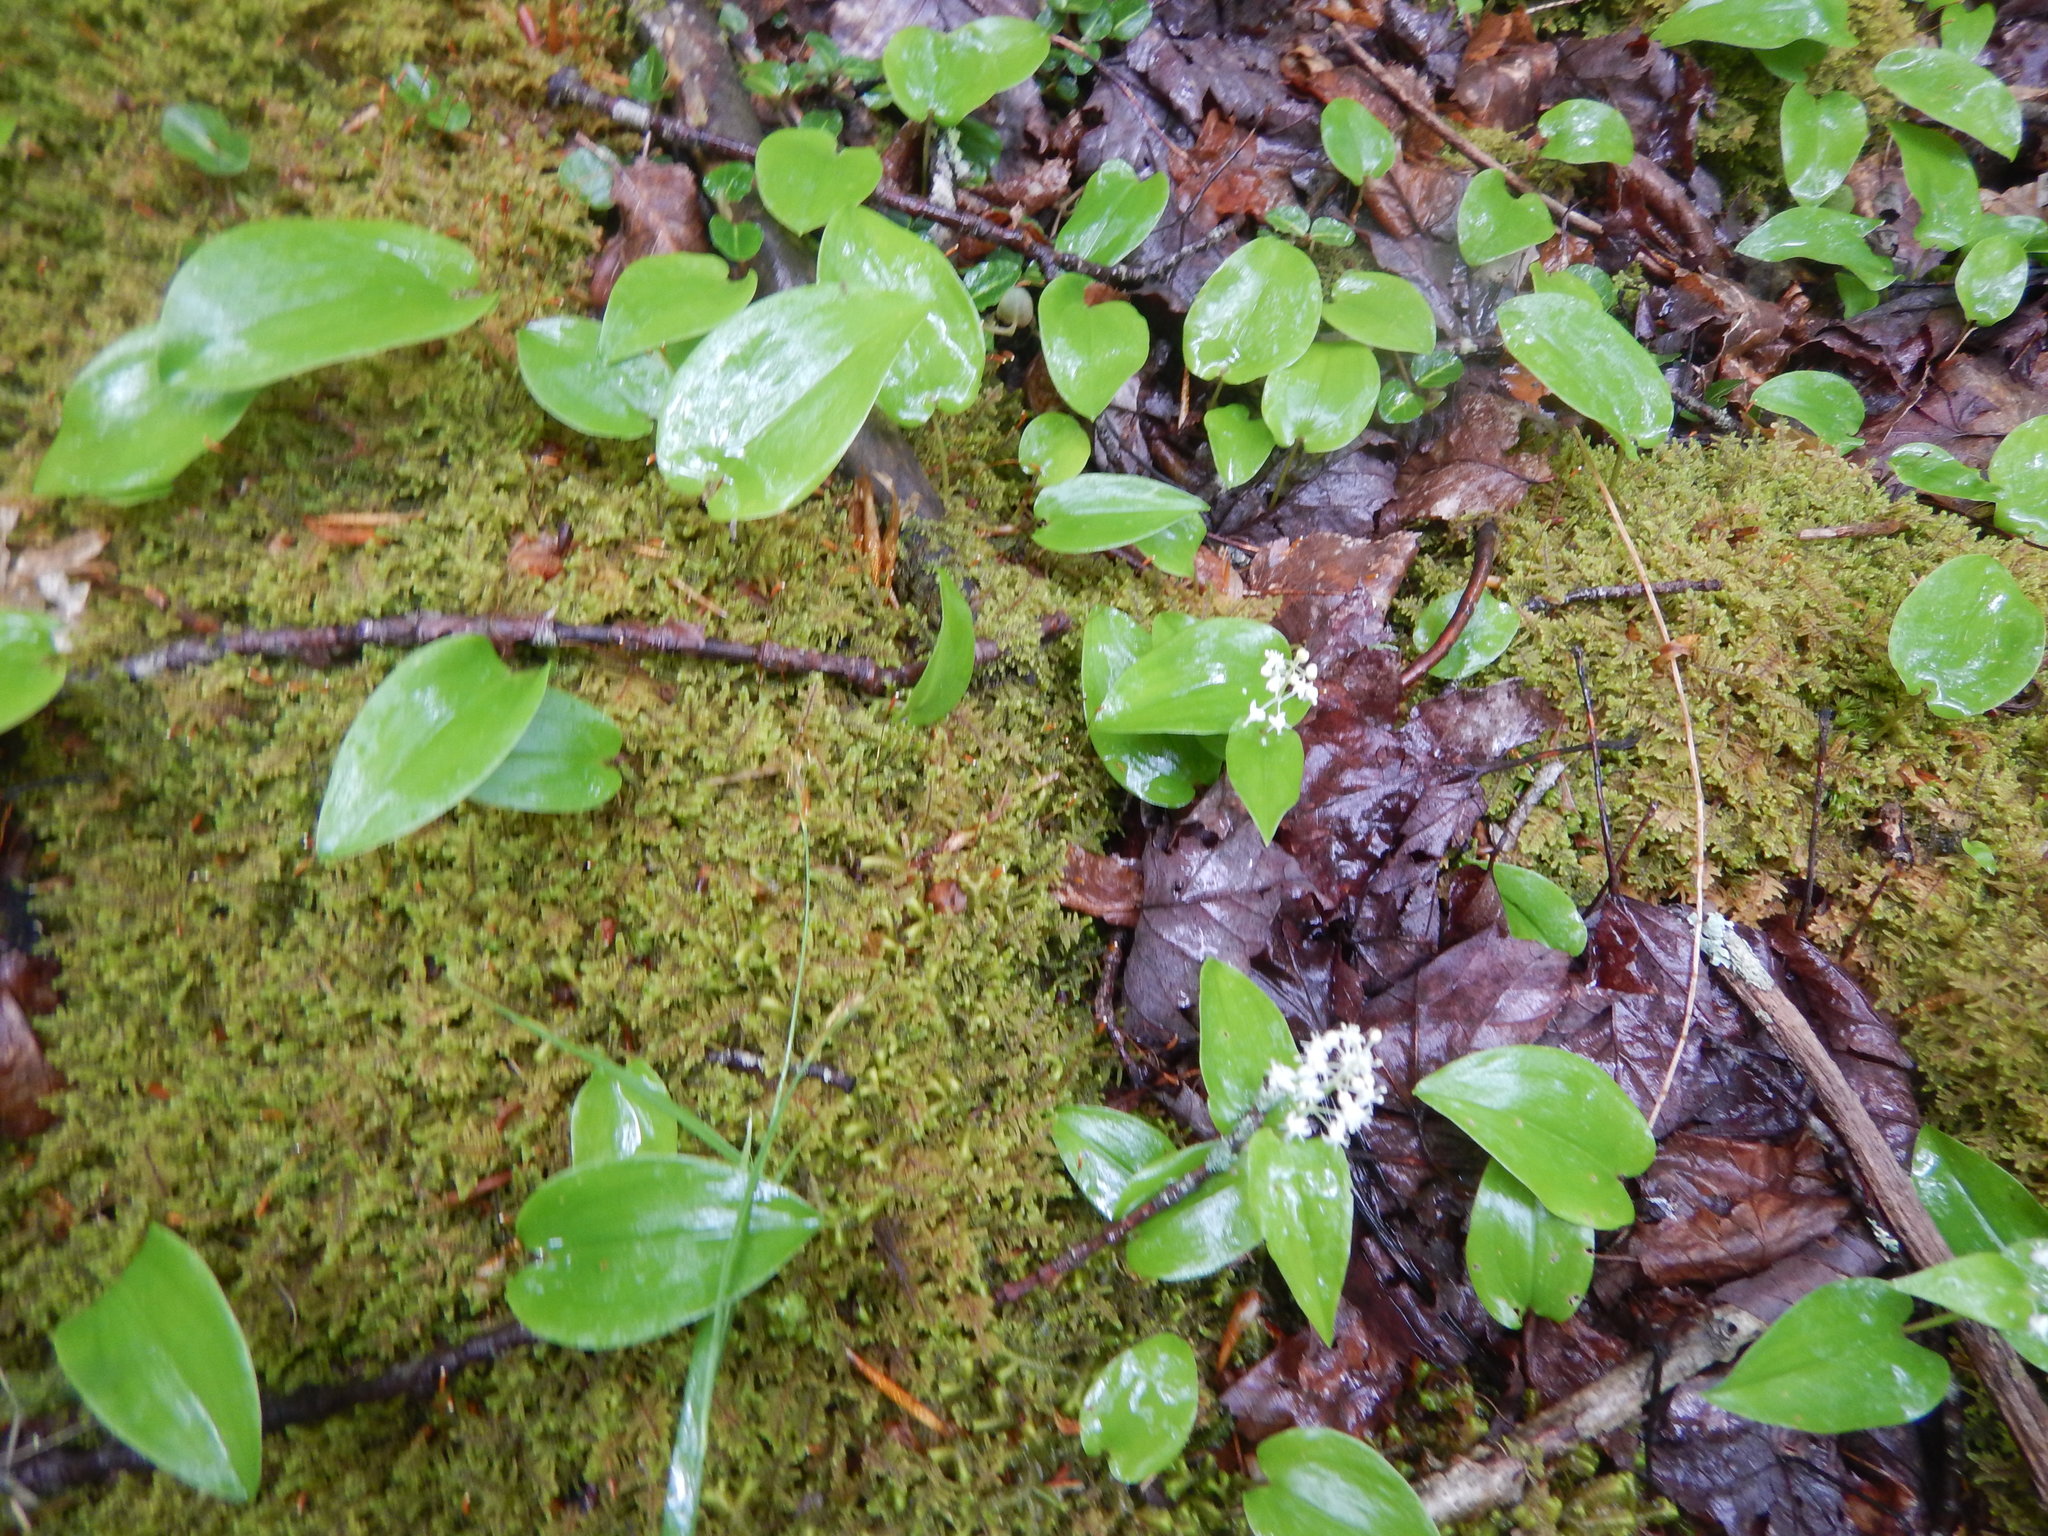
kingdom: Plantae
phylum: Tracheophyta
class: Liliopsida
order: Asparagales
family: Asparagaceae
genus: Maianthemum
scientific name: Maianthemum canadense
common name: False lily-of-the-valley
